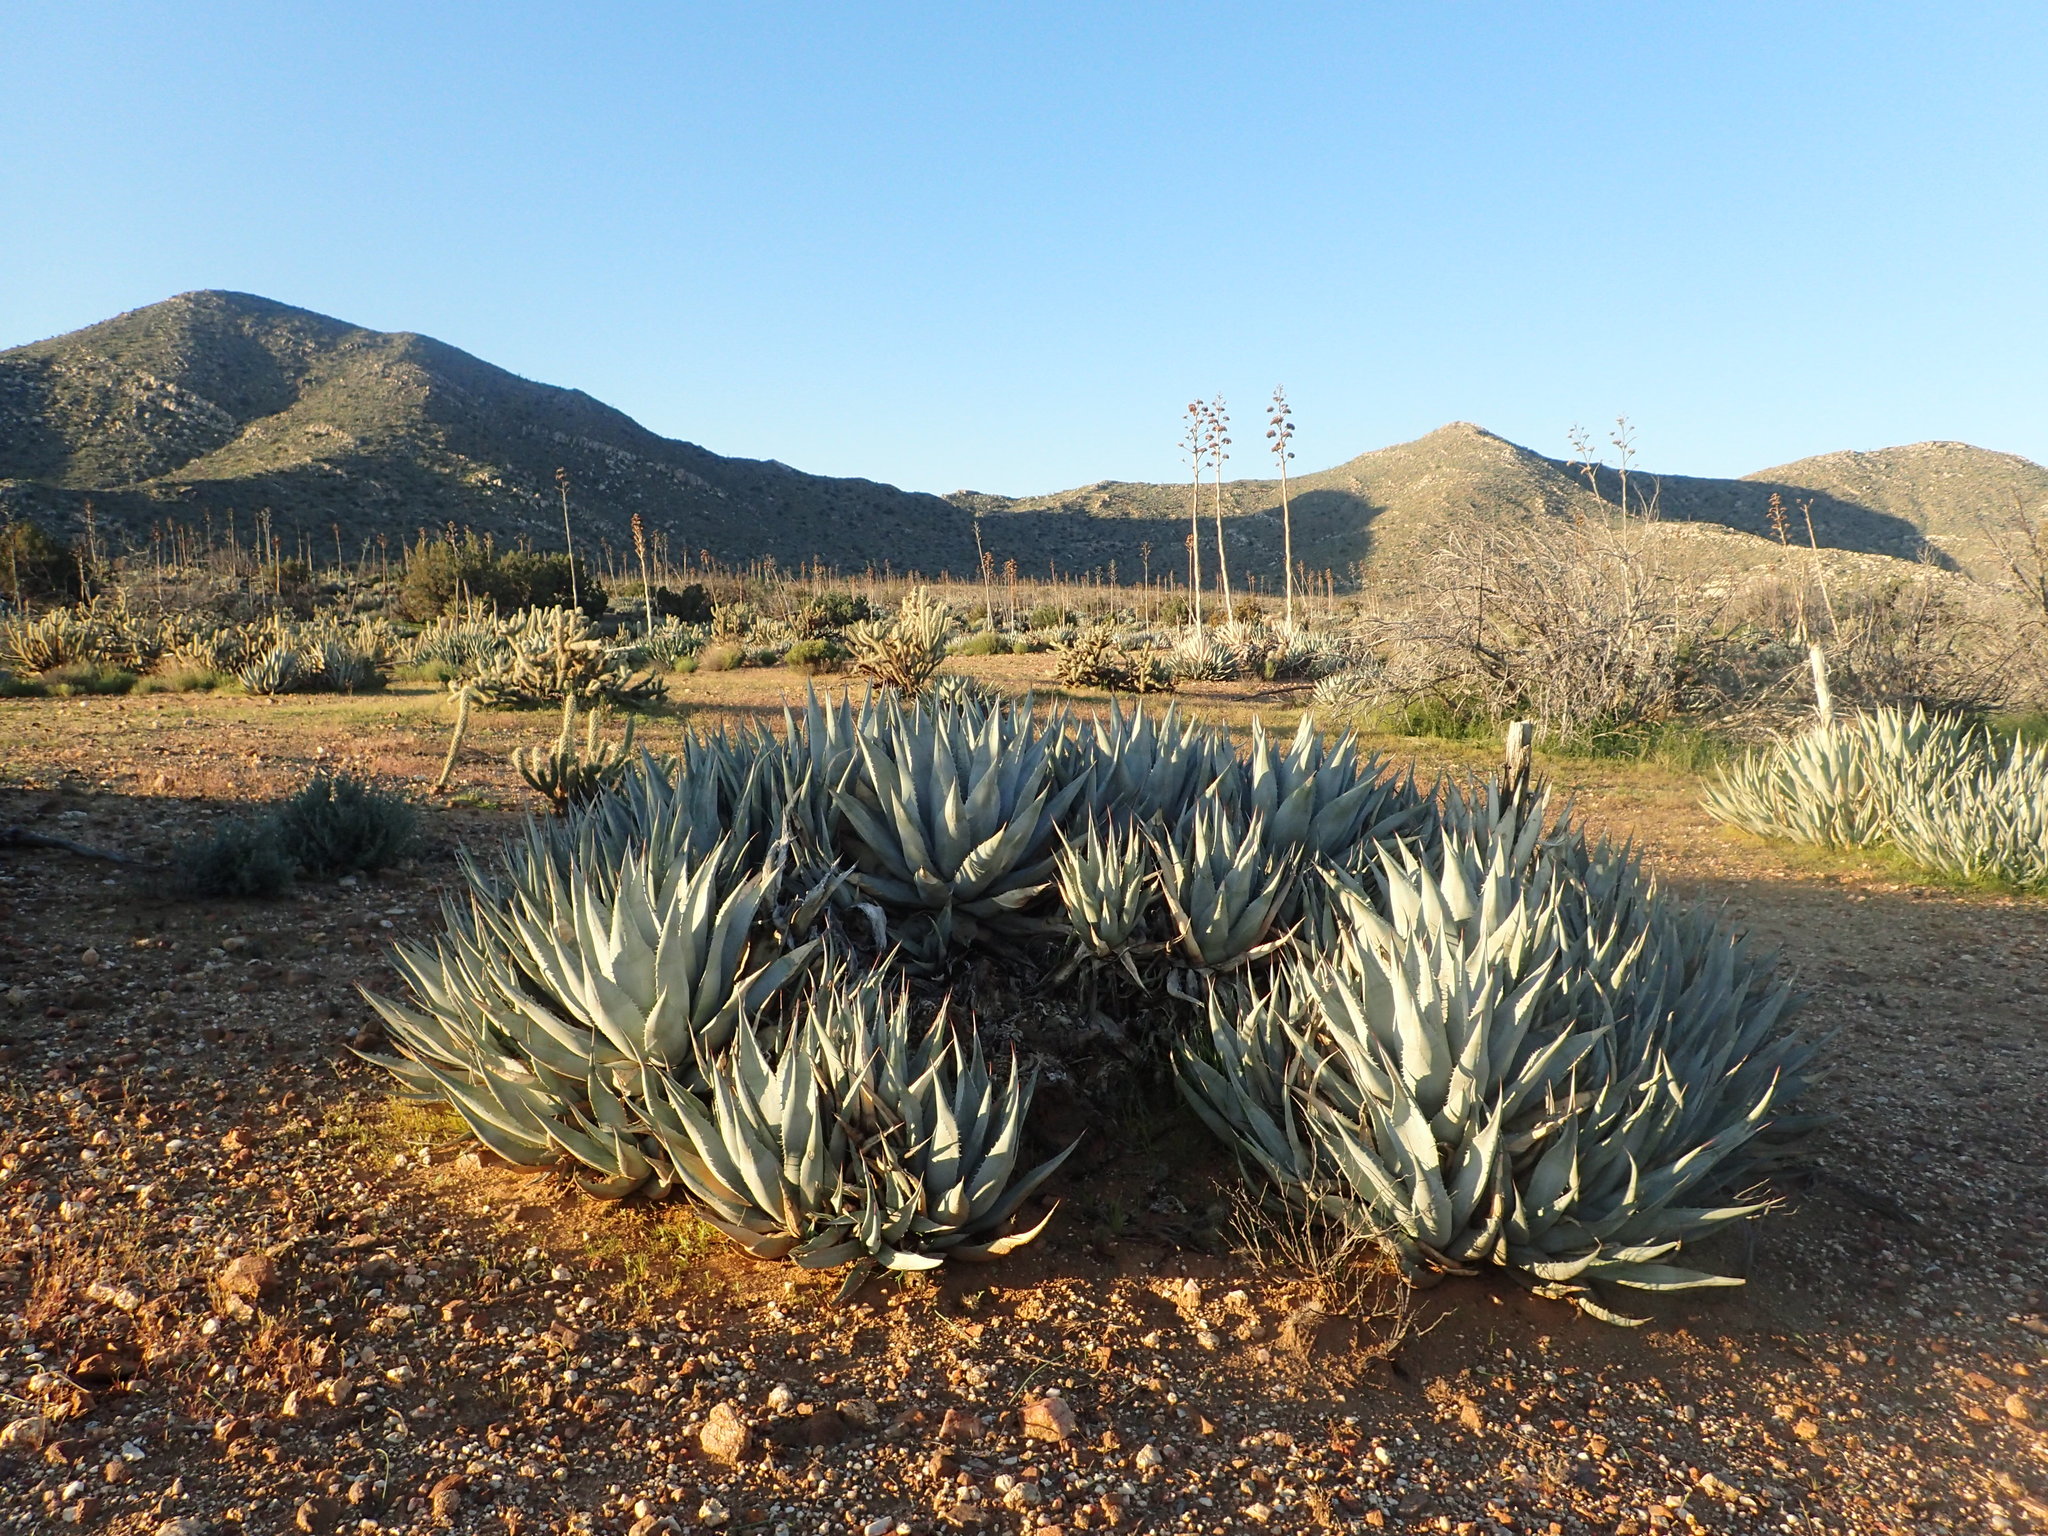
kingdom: Plantae
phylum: Tracheophyta
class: Liliopsida
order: Asparagales
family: Asparagaceae
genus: Agave
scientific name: Agave deserti
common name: Desert agave
